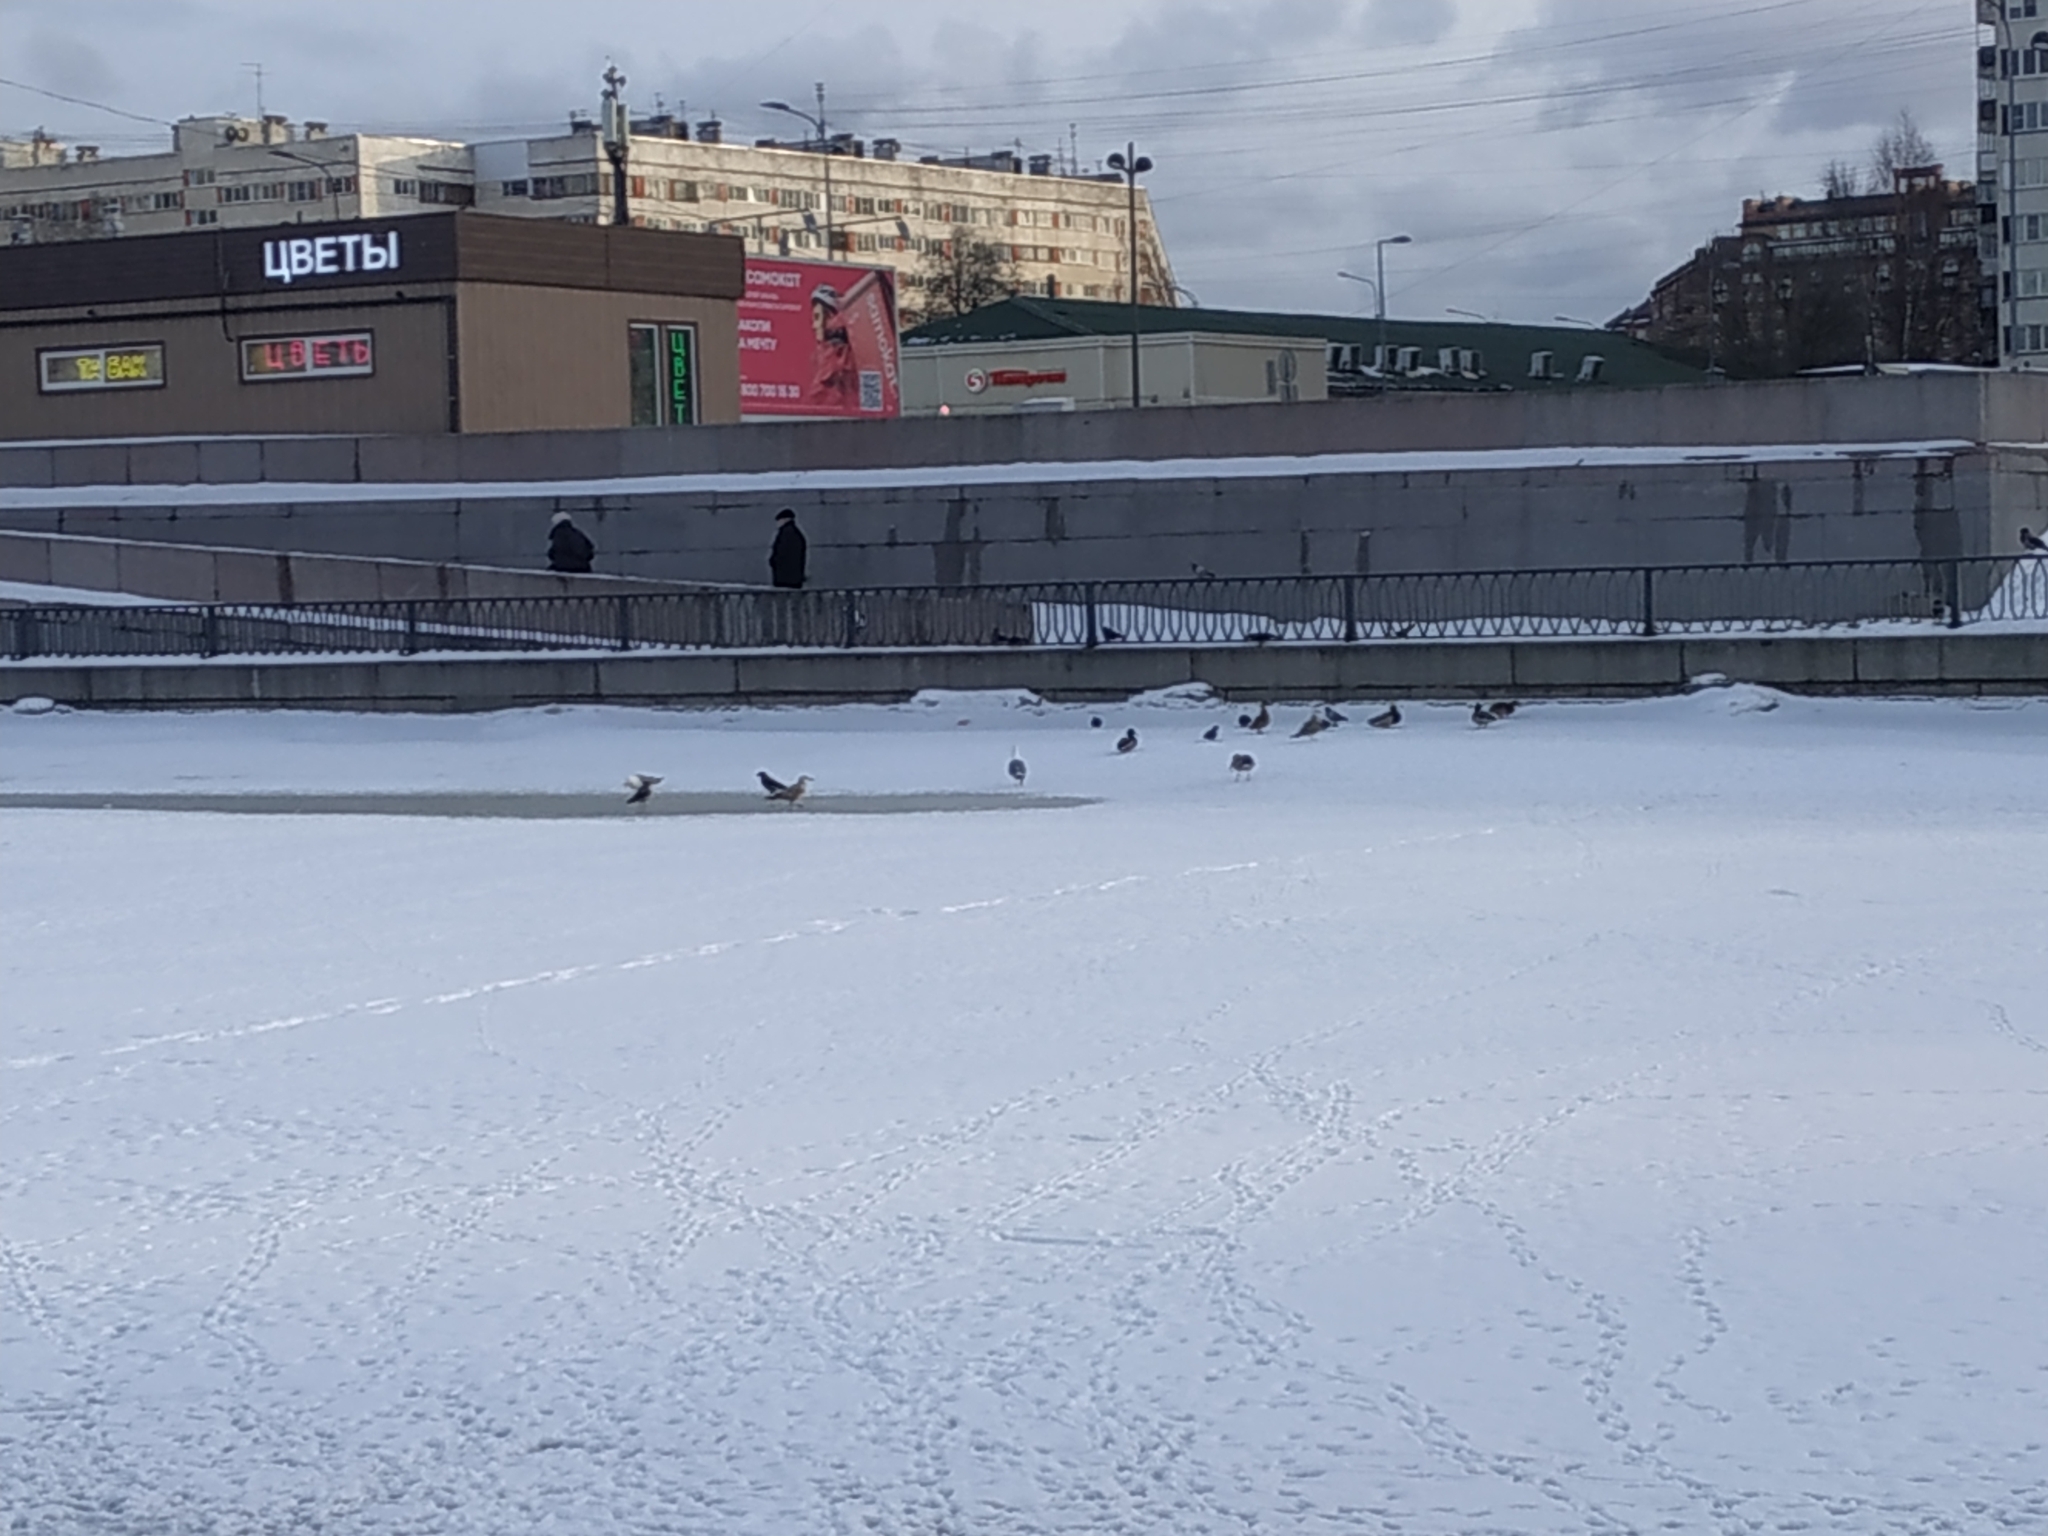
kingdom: Animalia
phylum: Chordata
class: Aves
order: Charadriiformes
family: Laridae
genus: Larus
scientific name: Larus argentatus
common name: Herring gull
